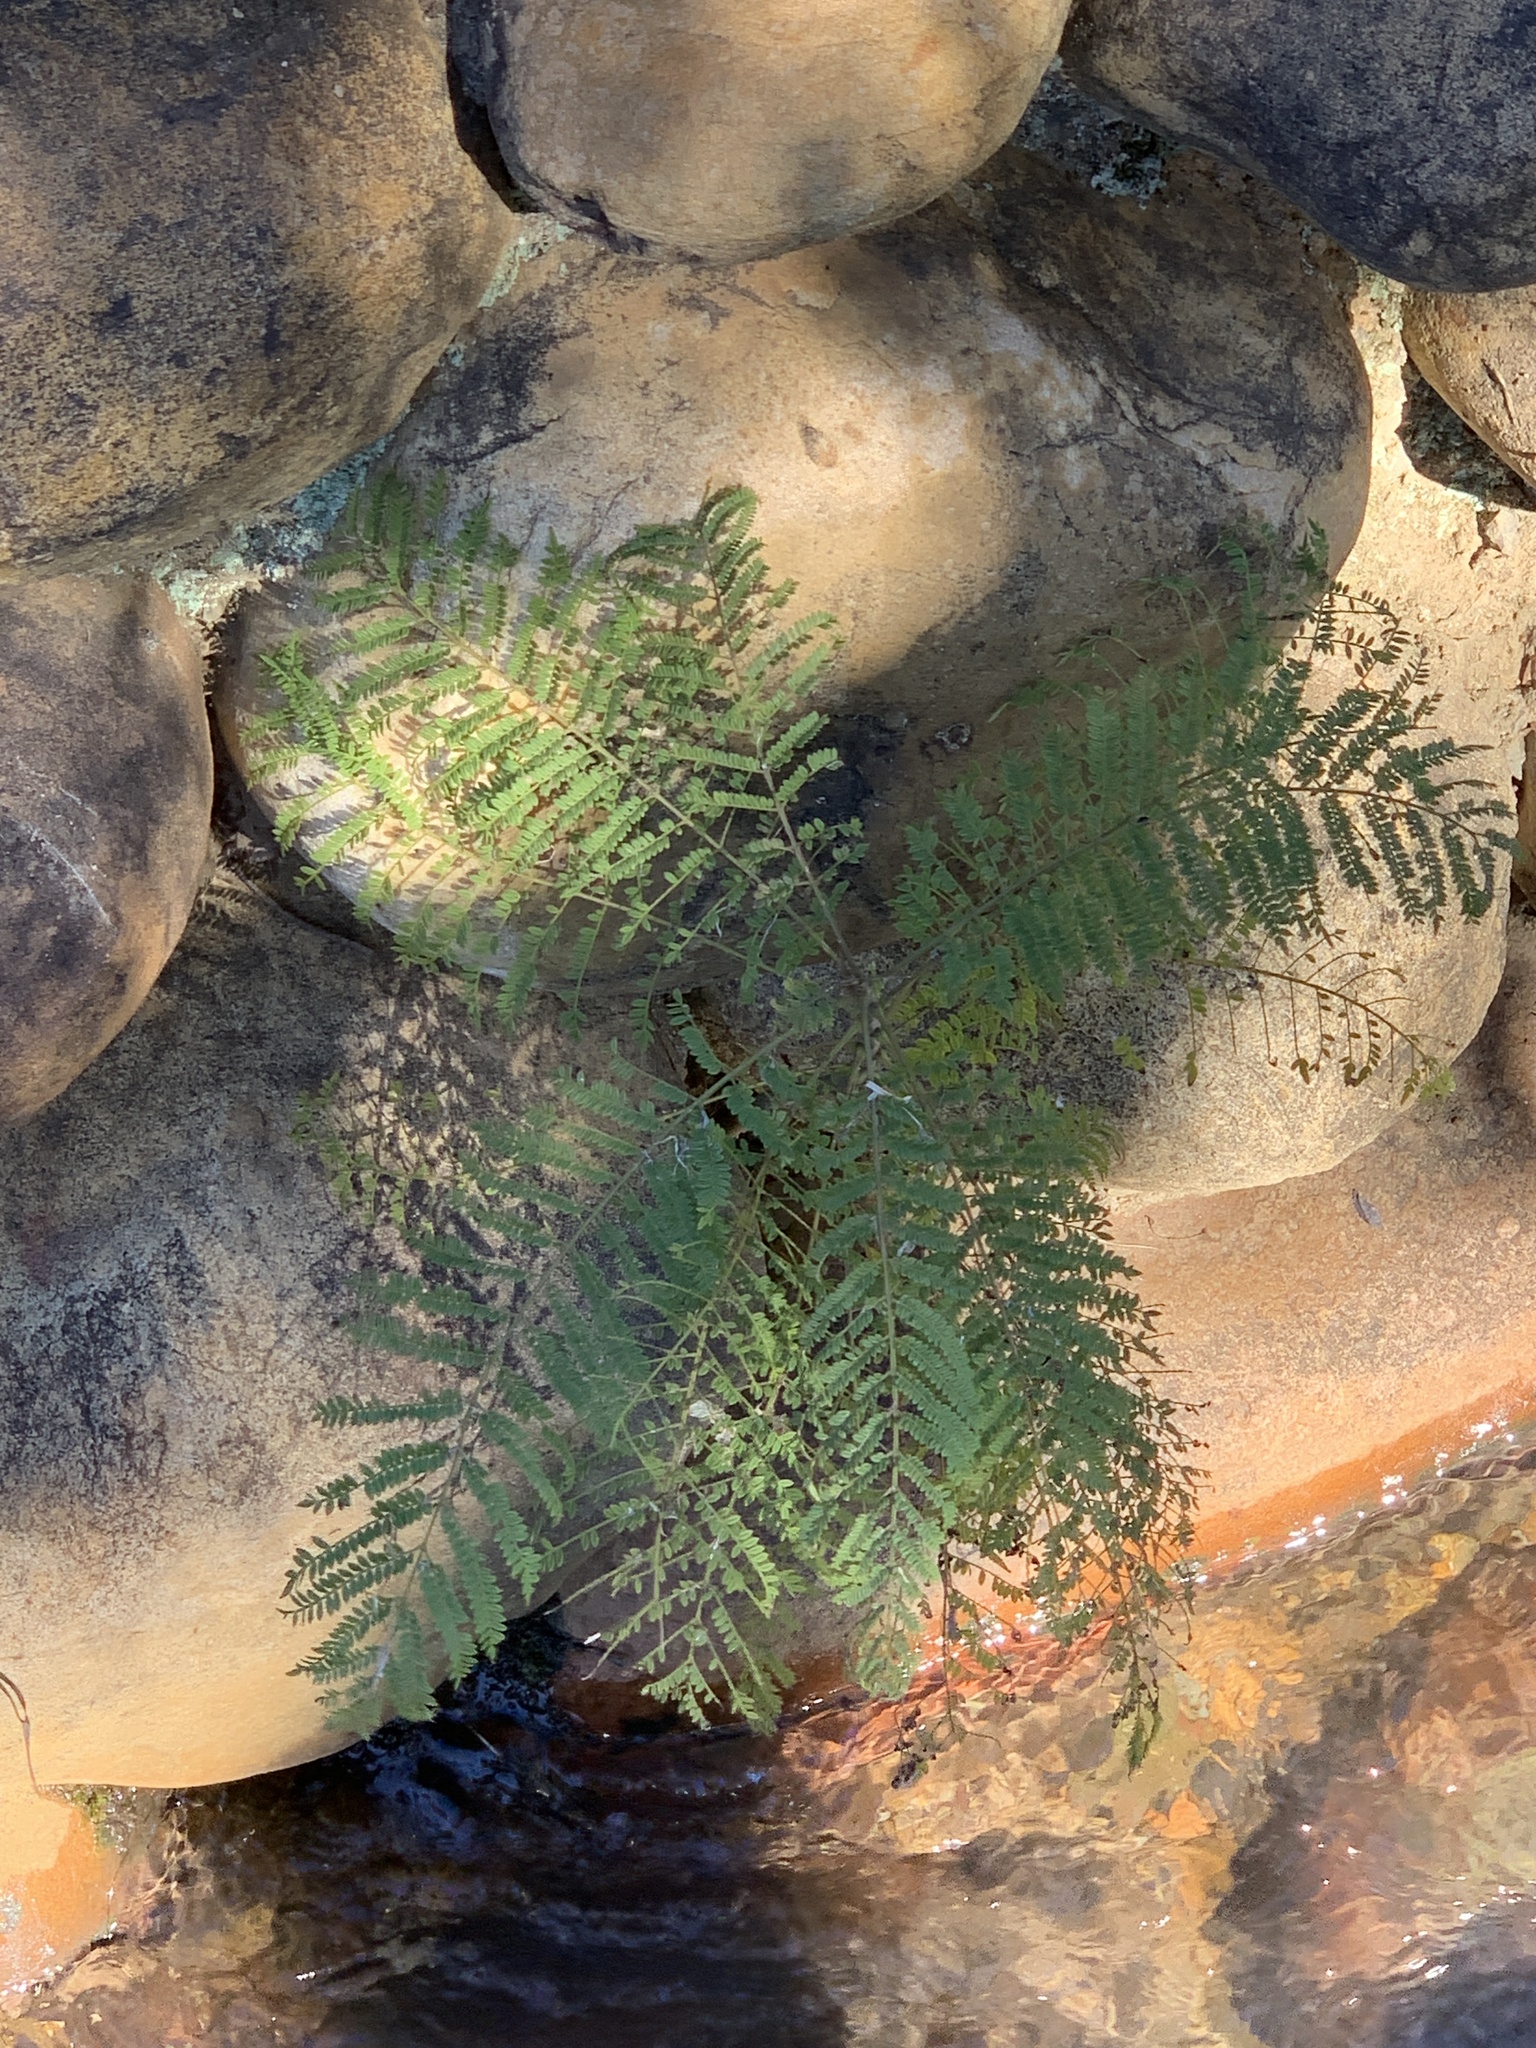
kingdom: Plantae
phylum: Tracheophyta
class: Magnoliopsida
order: Lamiales
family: Bignoniaceae
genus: Jacaranda
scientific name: Jacaranda mimosifolia
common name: Black poui
